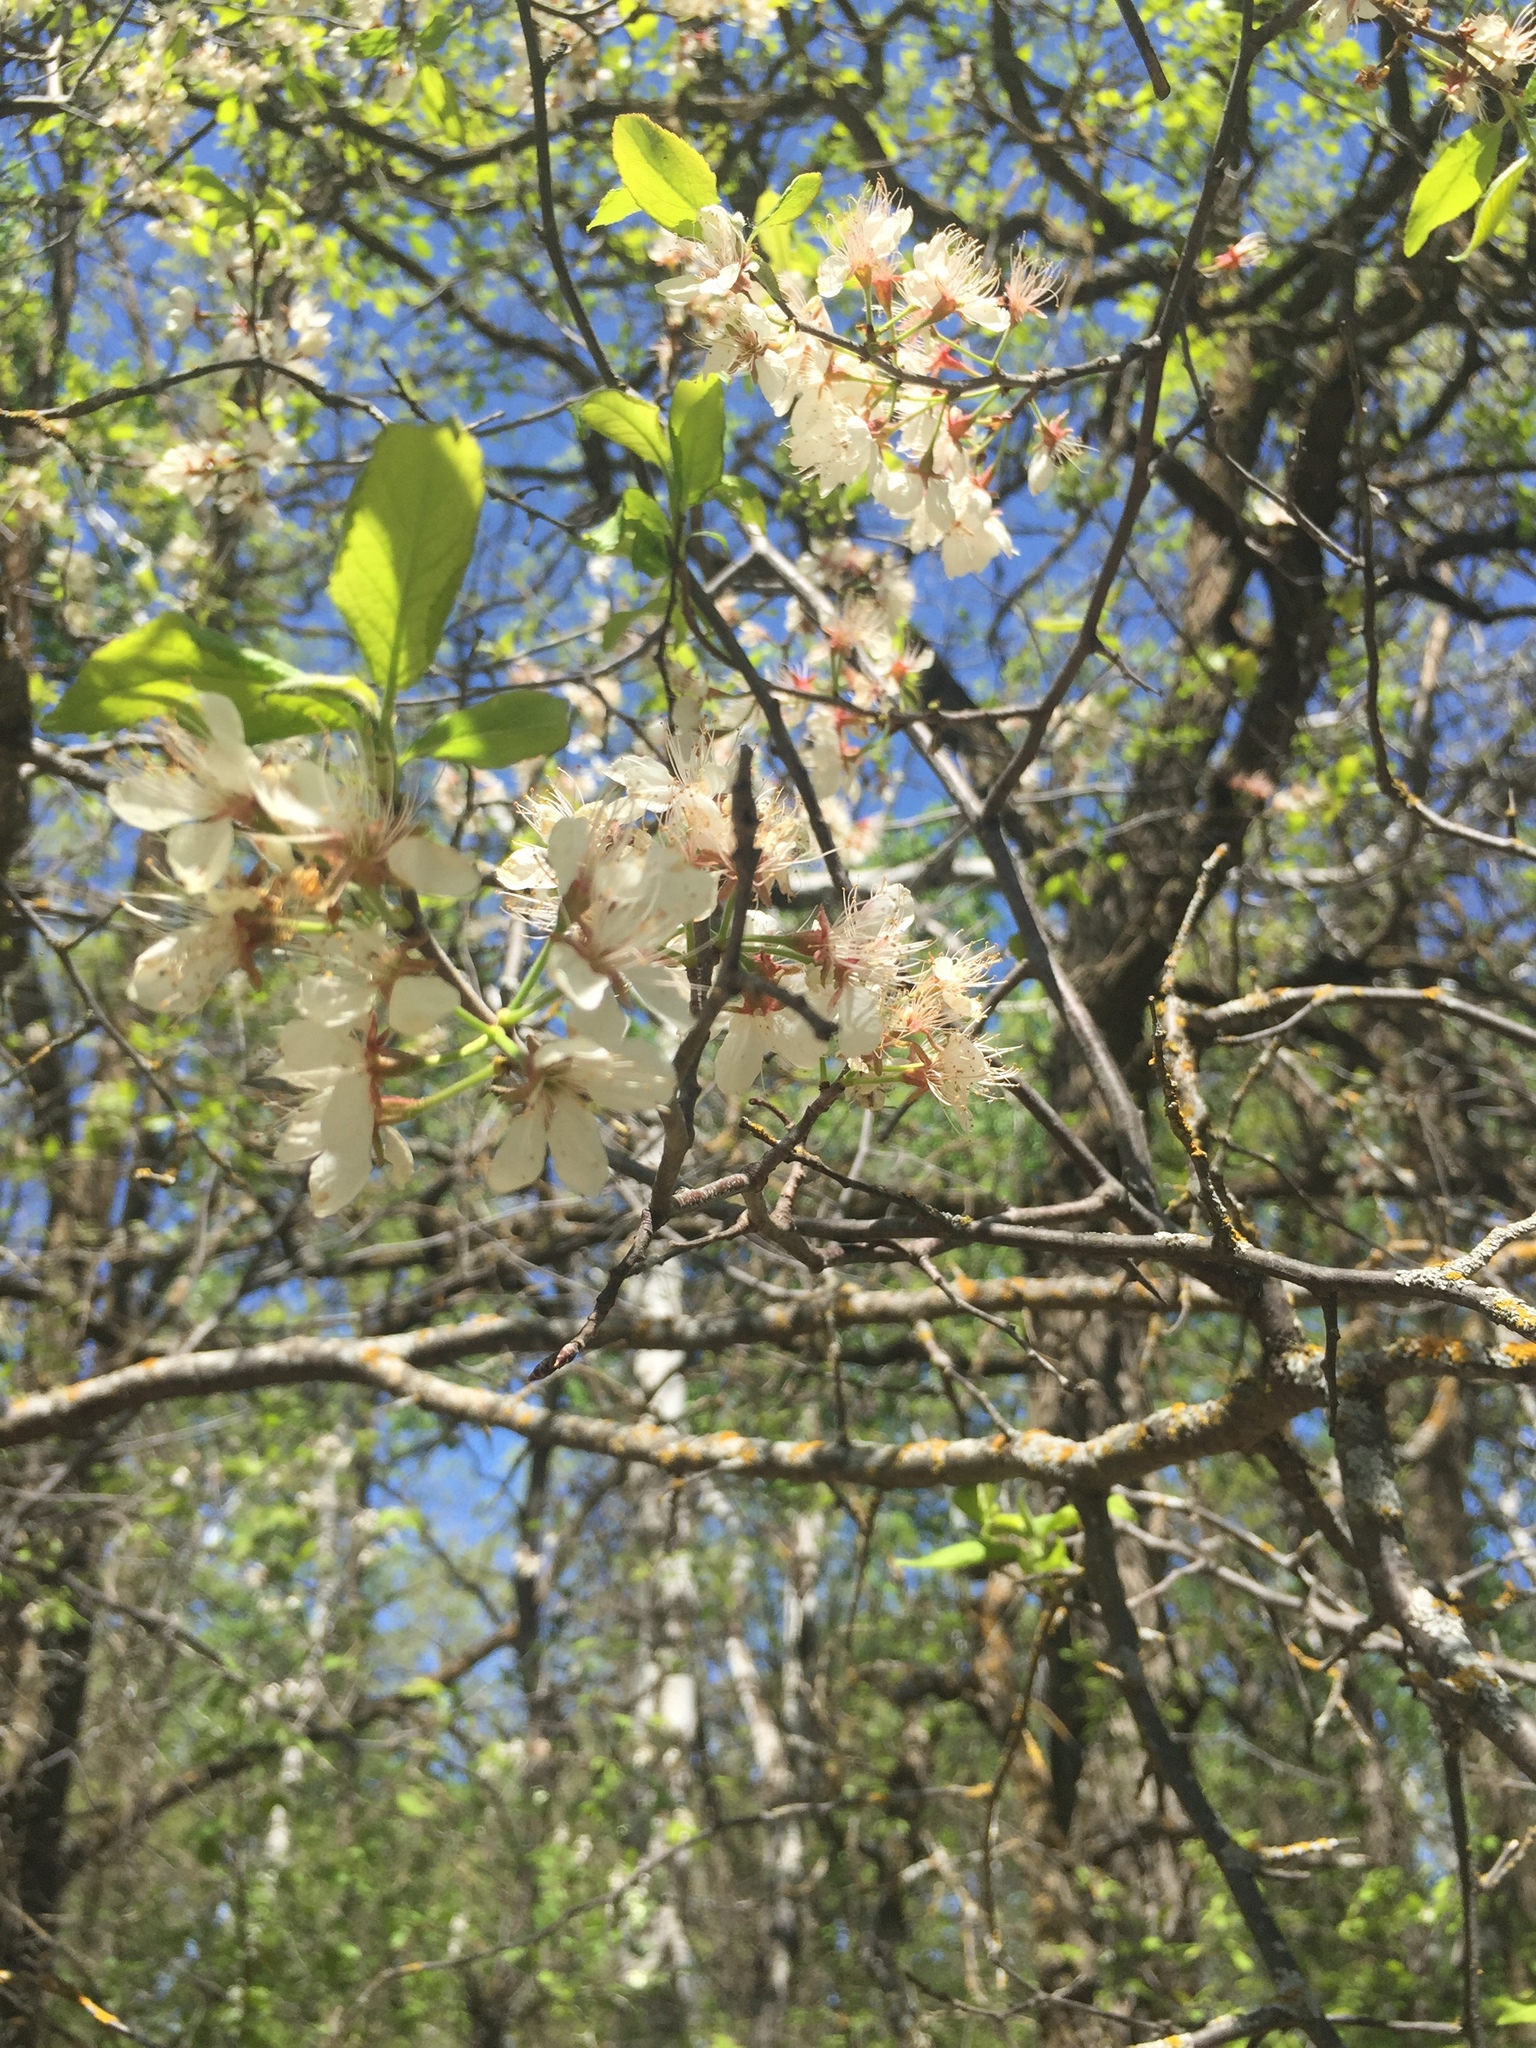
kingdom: Plantae
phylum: Tracheophyta
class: Magnoliopsida
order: Rosales
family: Rosaceae
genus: Prunus
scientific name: Prunus nigra
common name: Black plum
